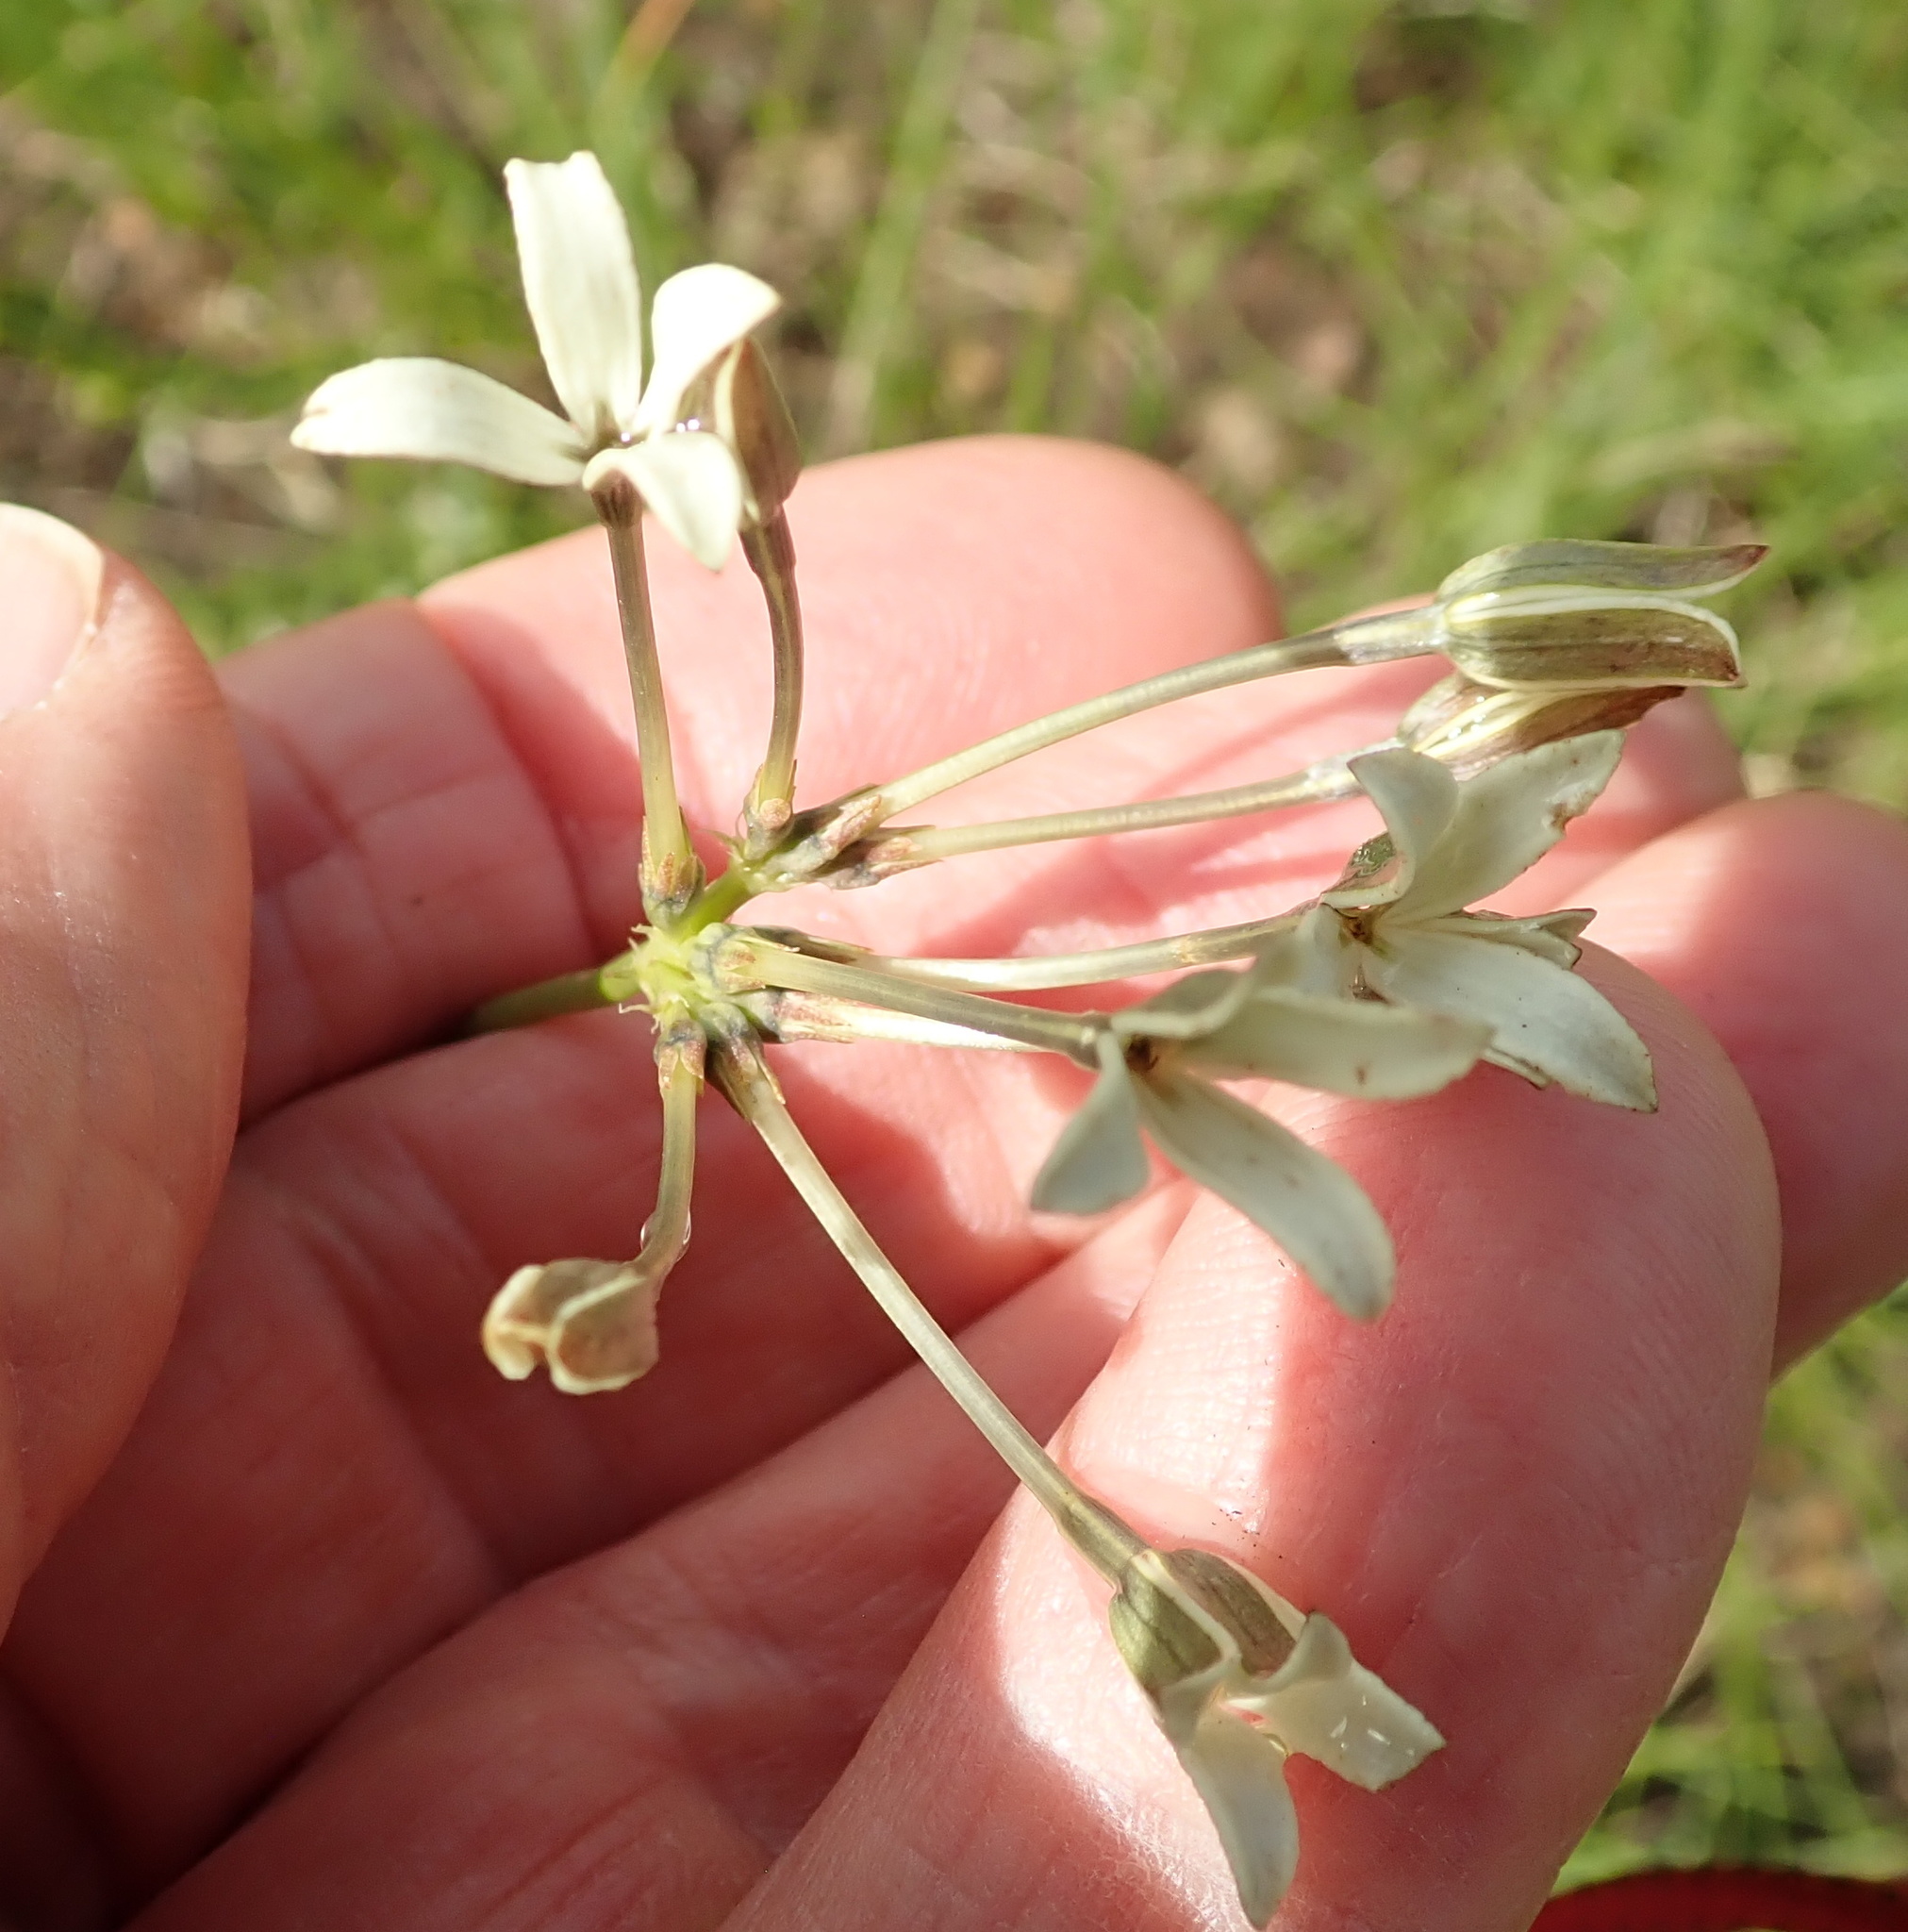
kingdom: Plantae
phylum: Tracheophyta
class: Magnoliopsida
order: Gentianales
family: Rubiaceae
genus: Kohautia
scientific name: Kohautia amatymbica
